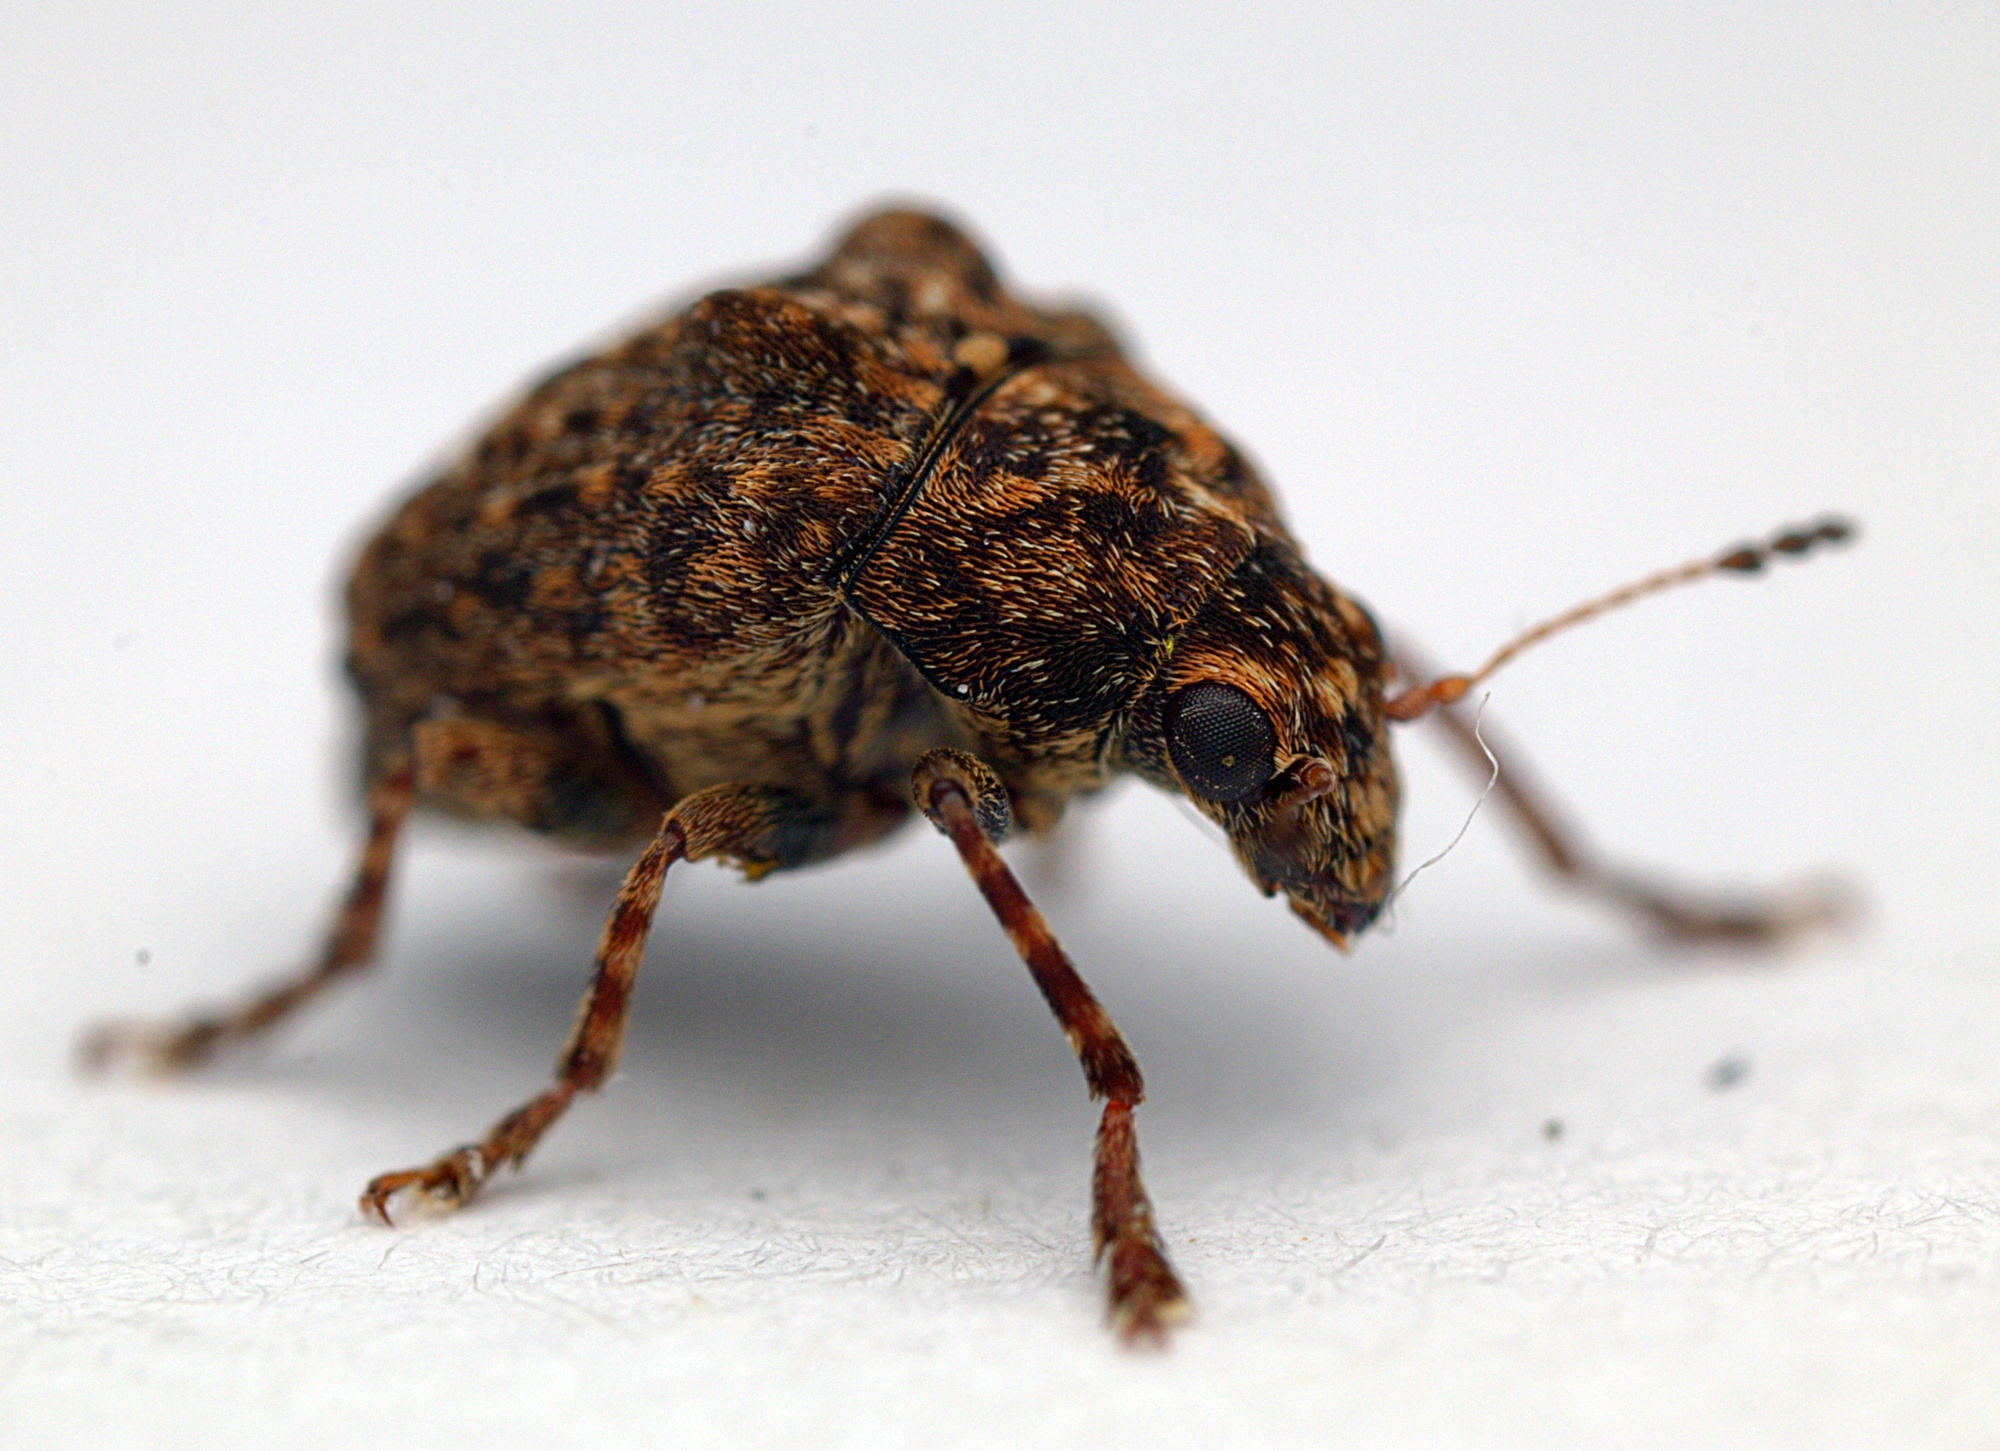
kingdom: Animalia
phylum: Arthropoda
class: Insecta
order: Coleoptera
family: Anthribidae
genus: Araecerus
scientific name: Araecerus
